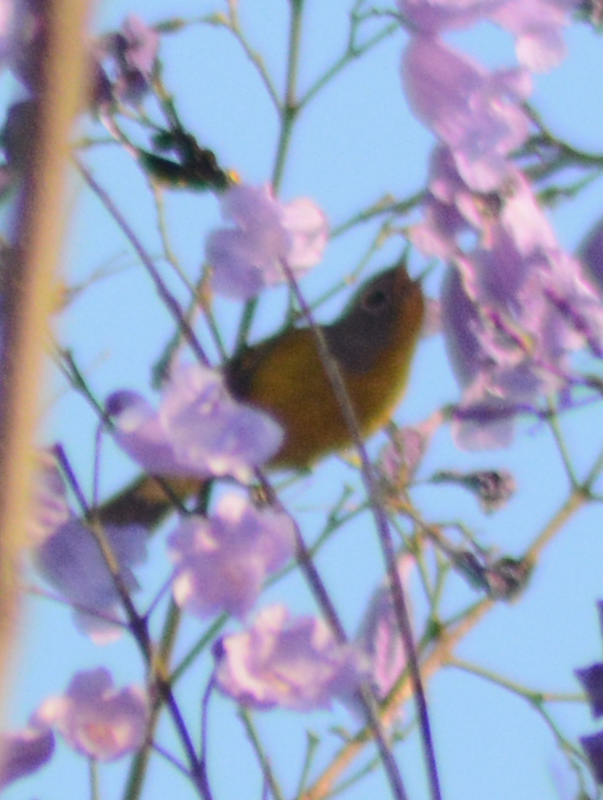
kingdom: Animalia
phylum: Chordata
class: Aves
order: Passeriformes
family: Parulidae
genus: Leiothlypis
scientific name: Leiothlypis ruficapilla
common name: Nashville warbler
